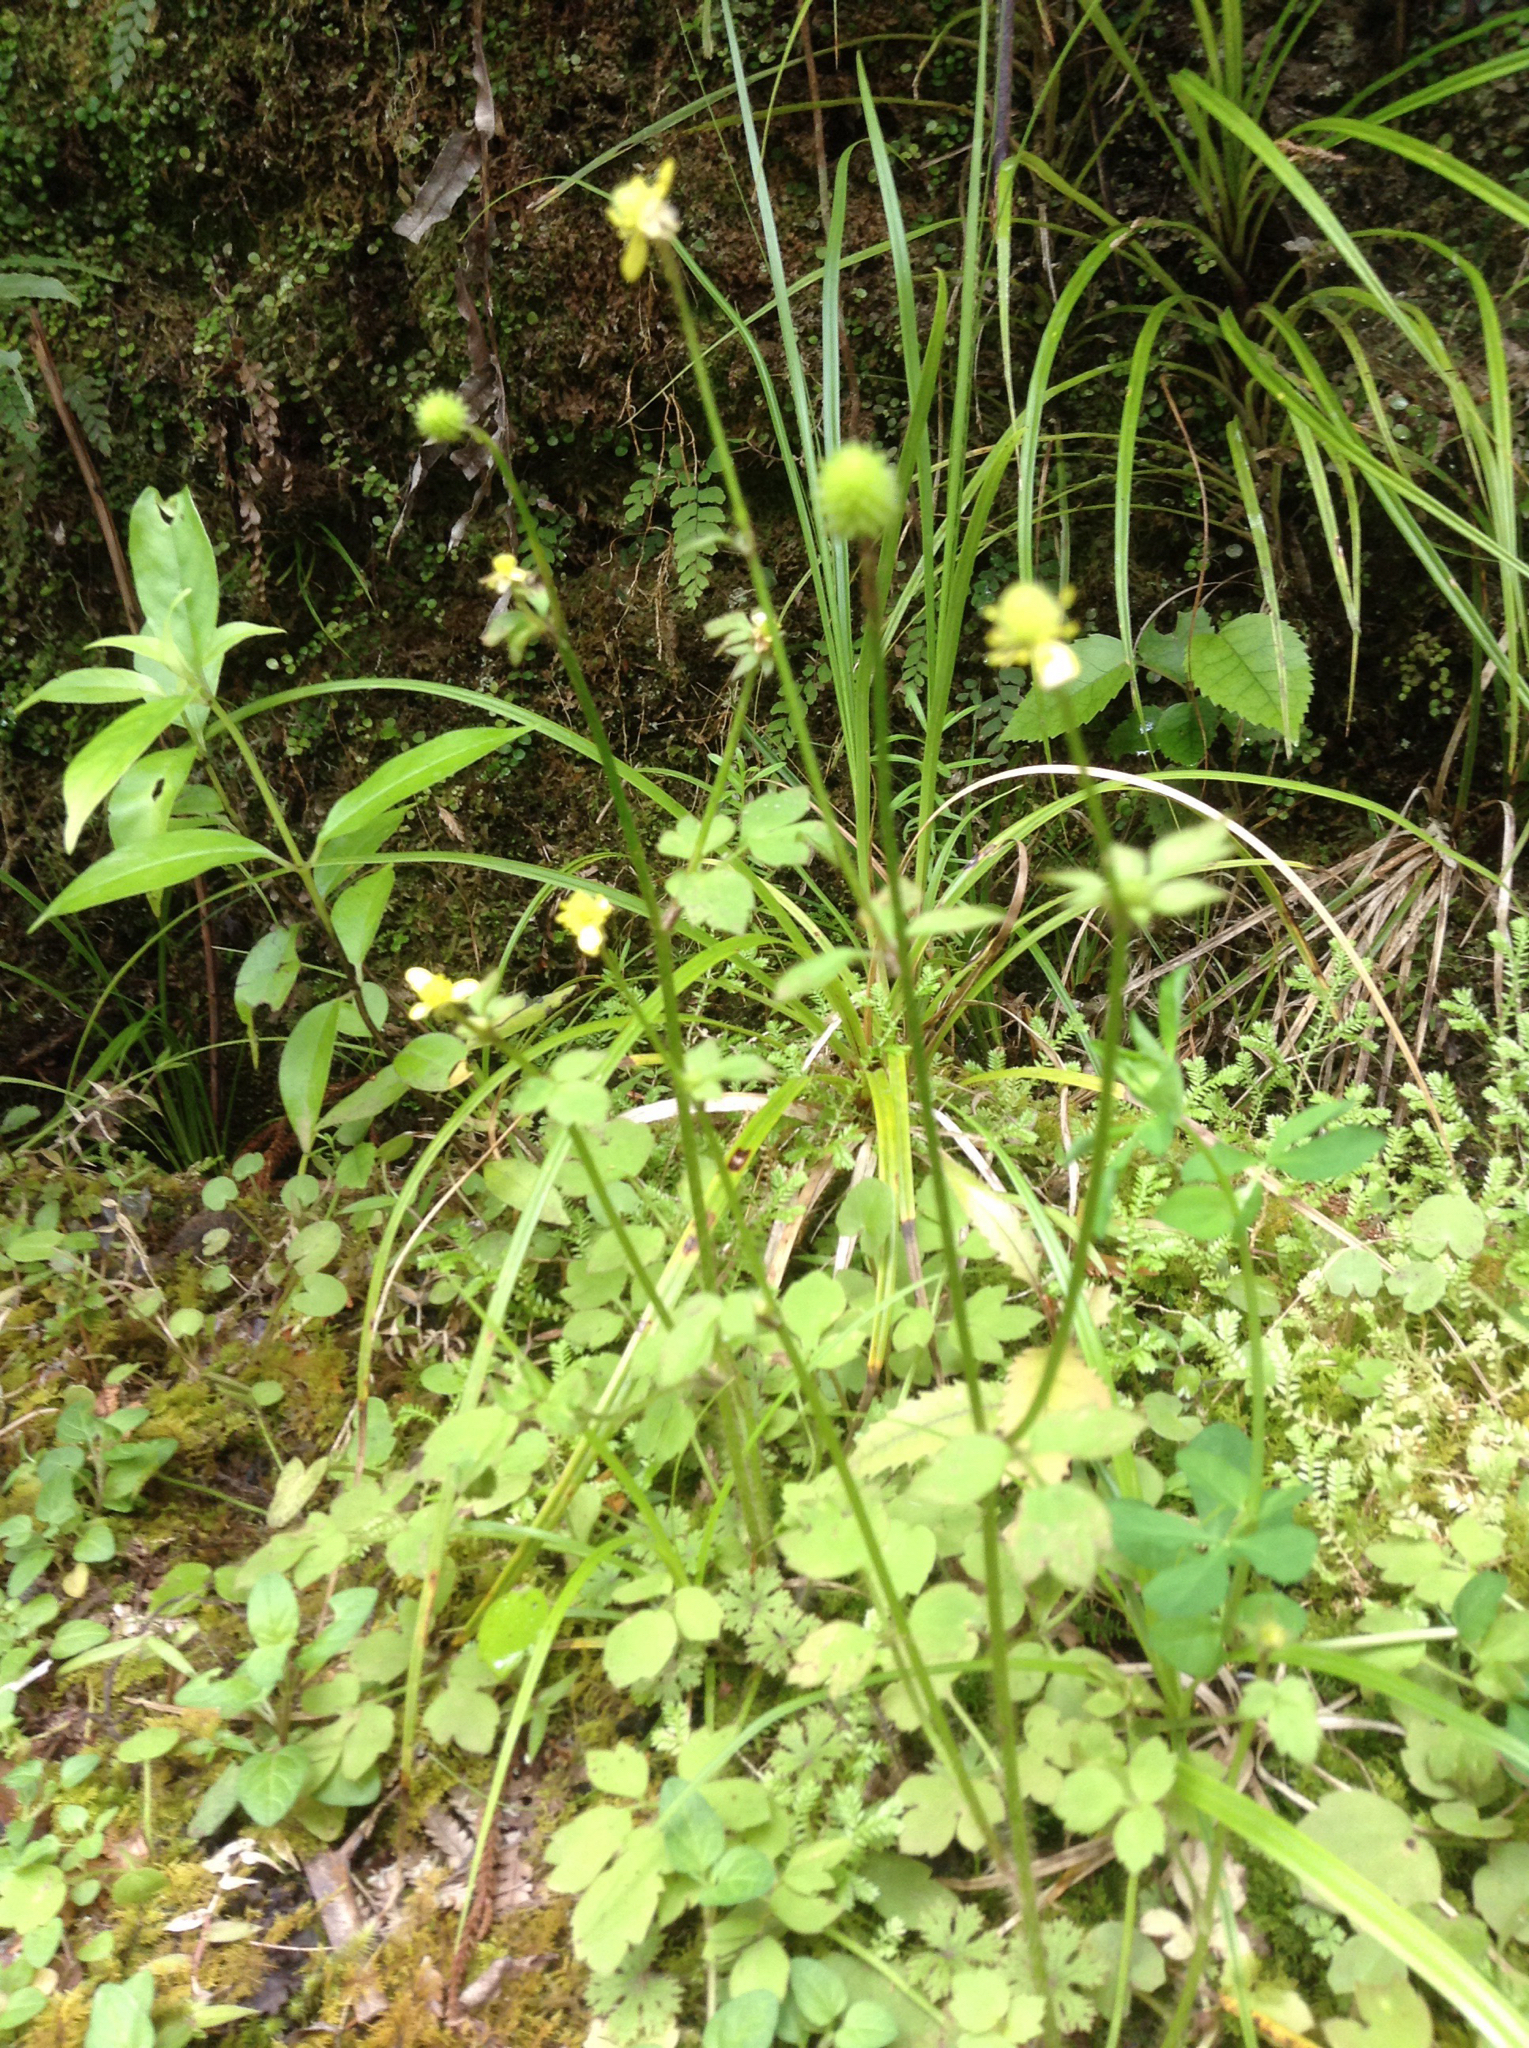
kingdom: Plantae
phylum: Tracheophyta
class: Magnoliopsida
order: Ranunculales
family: Ranunculaceae
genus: Ranunculus
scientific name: Ranunculus reflexus
